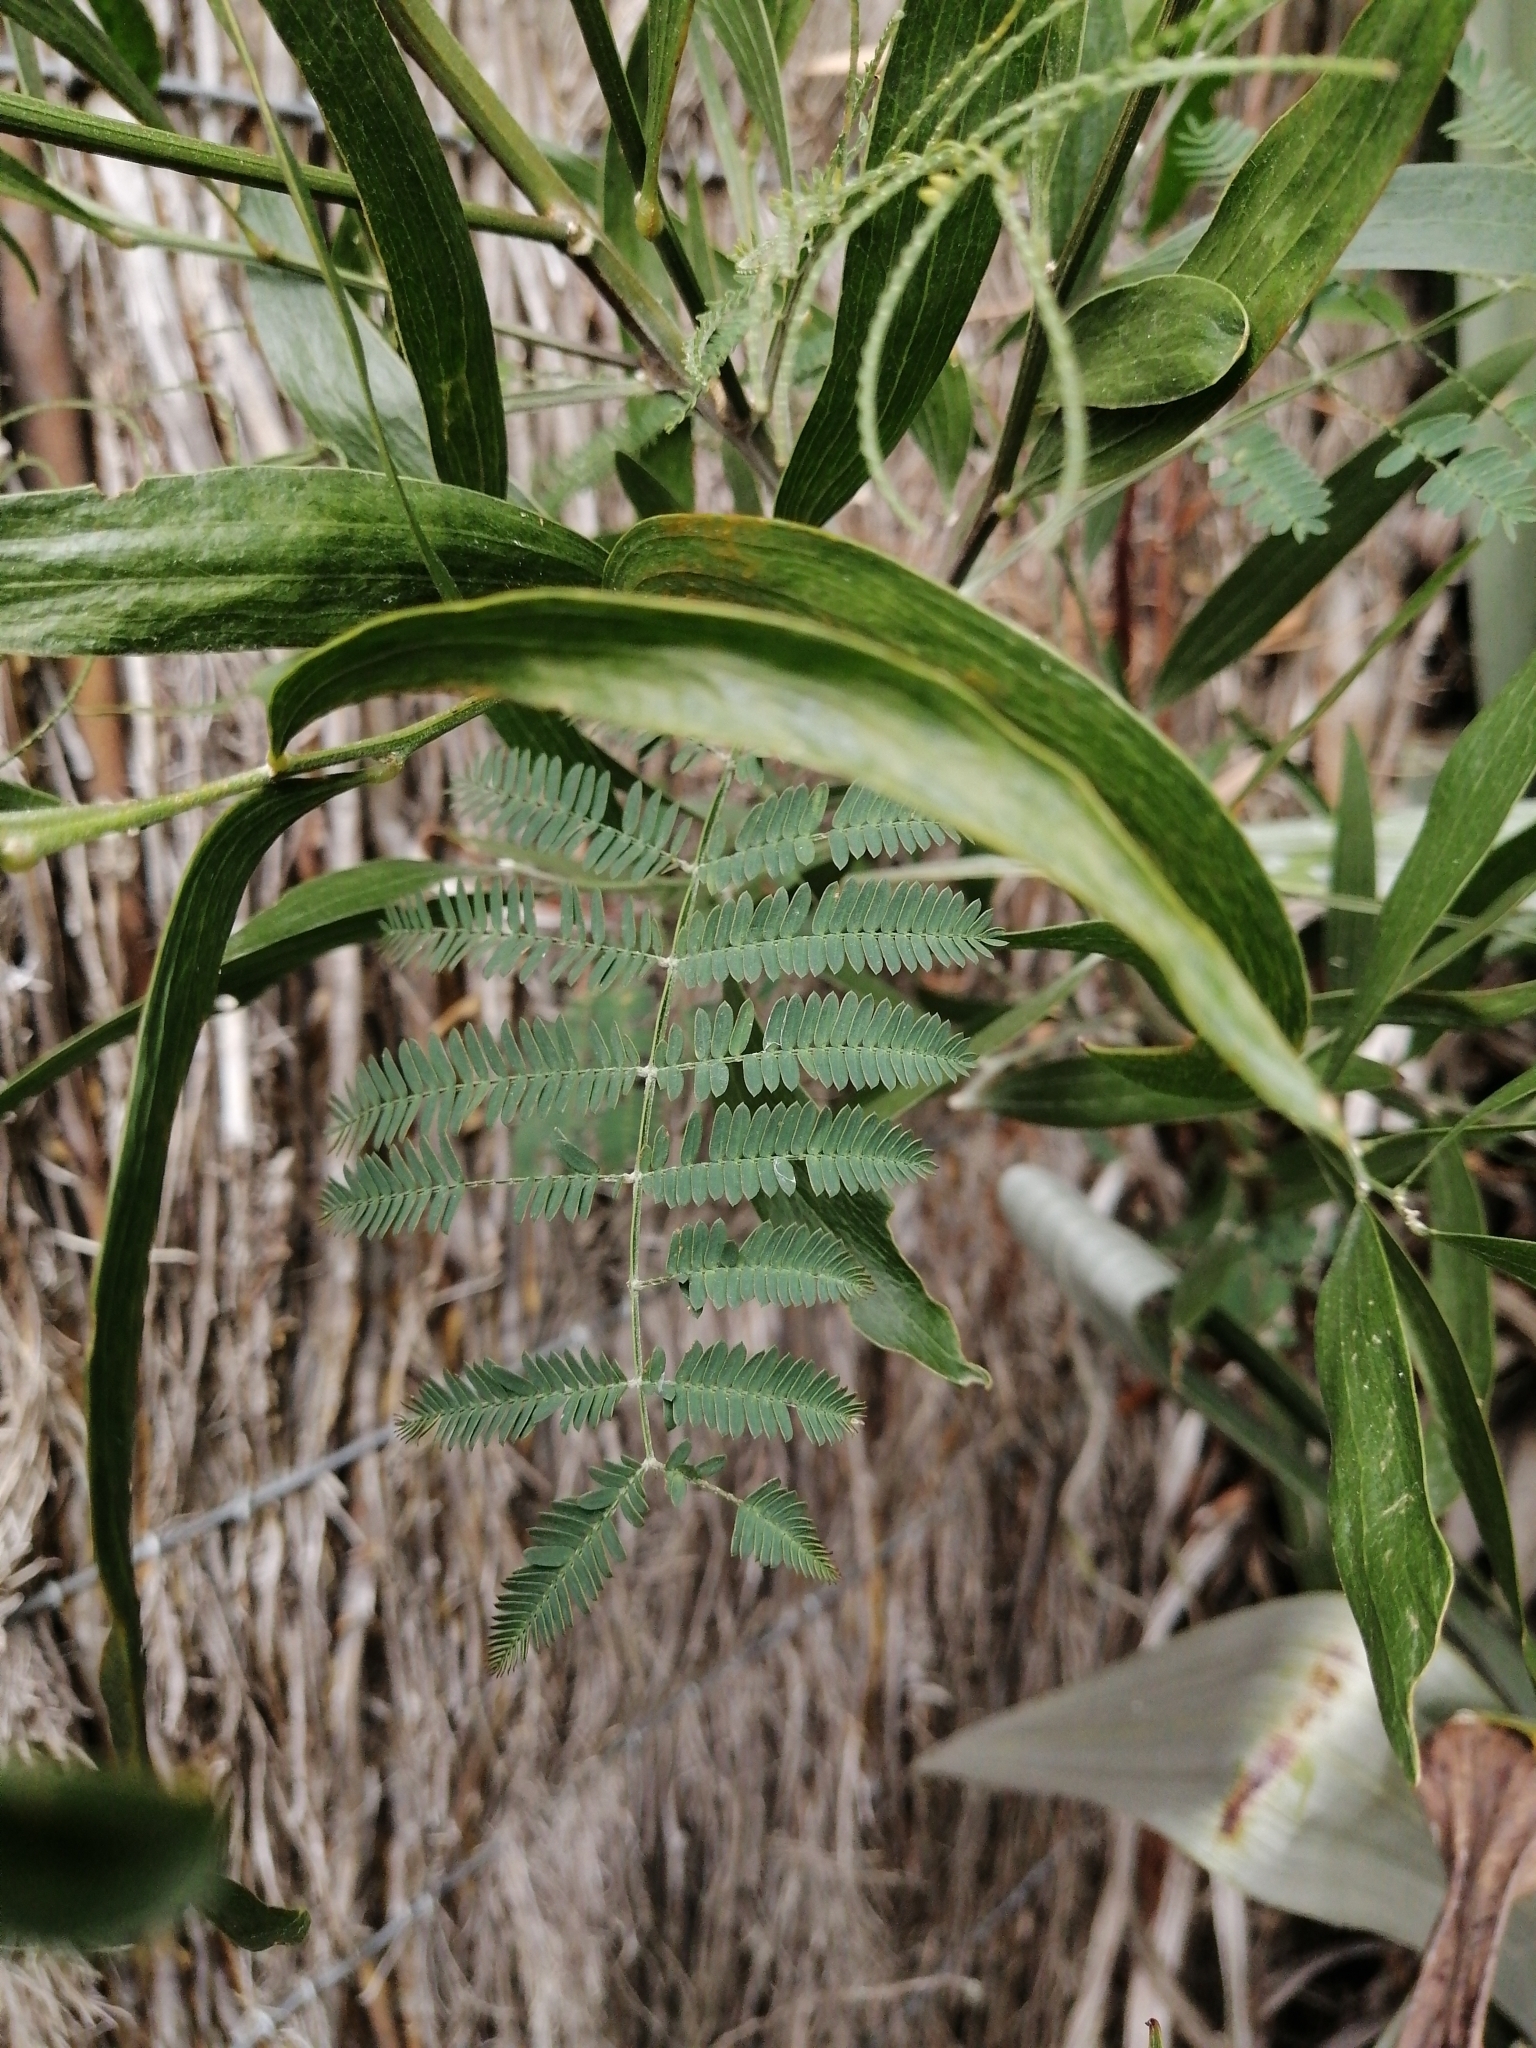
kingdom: Plantae
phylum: Tracheophyta
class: Magnoliopsida
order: Fabales
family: Fabaceae
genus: Acacia
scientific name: Acacia melanoxylon
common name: Blackwood
